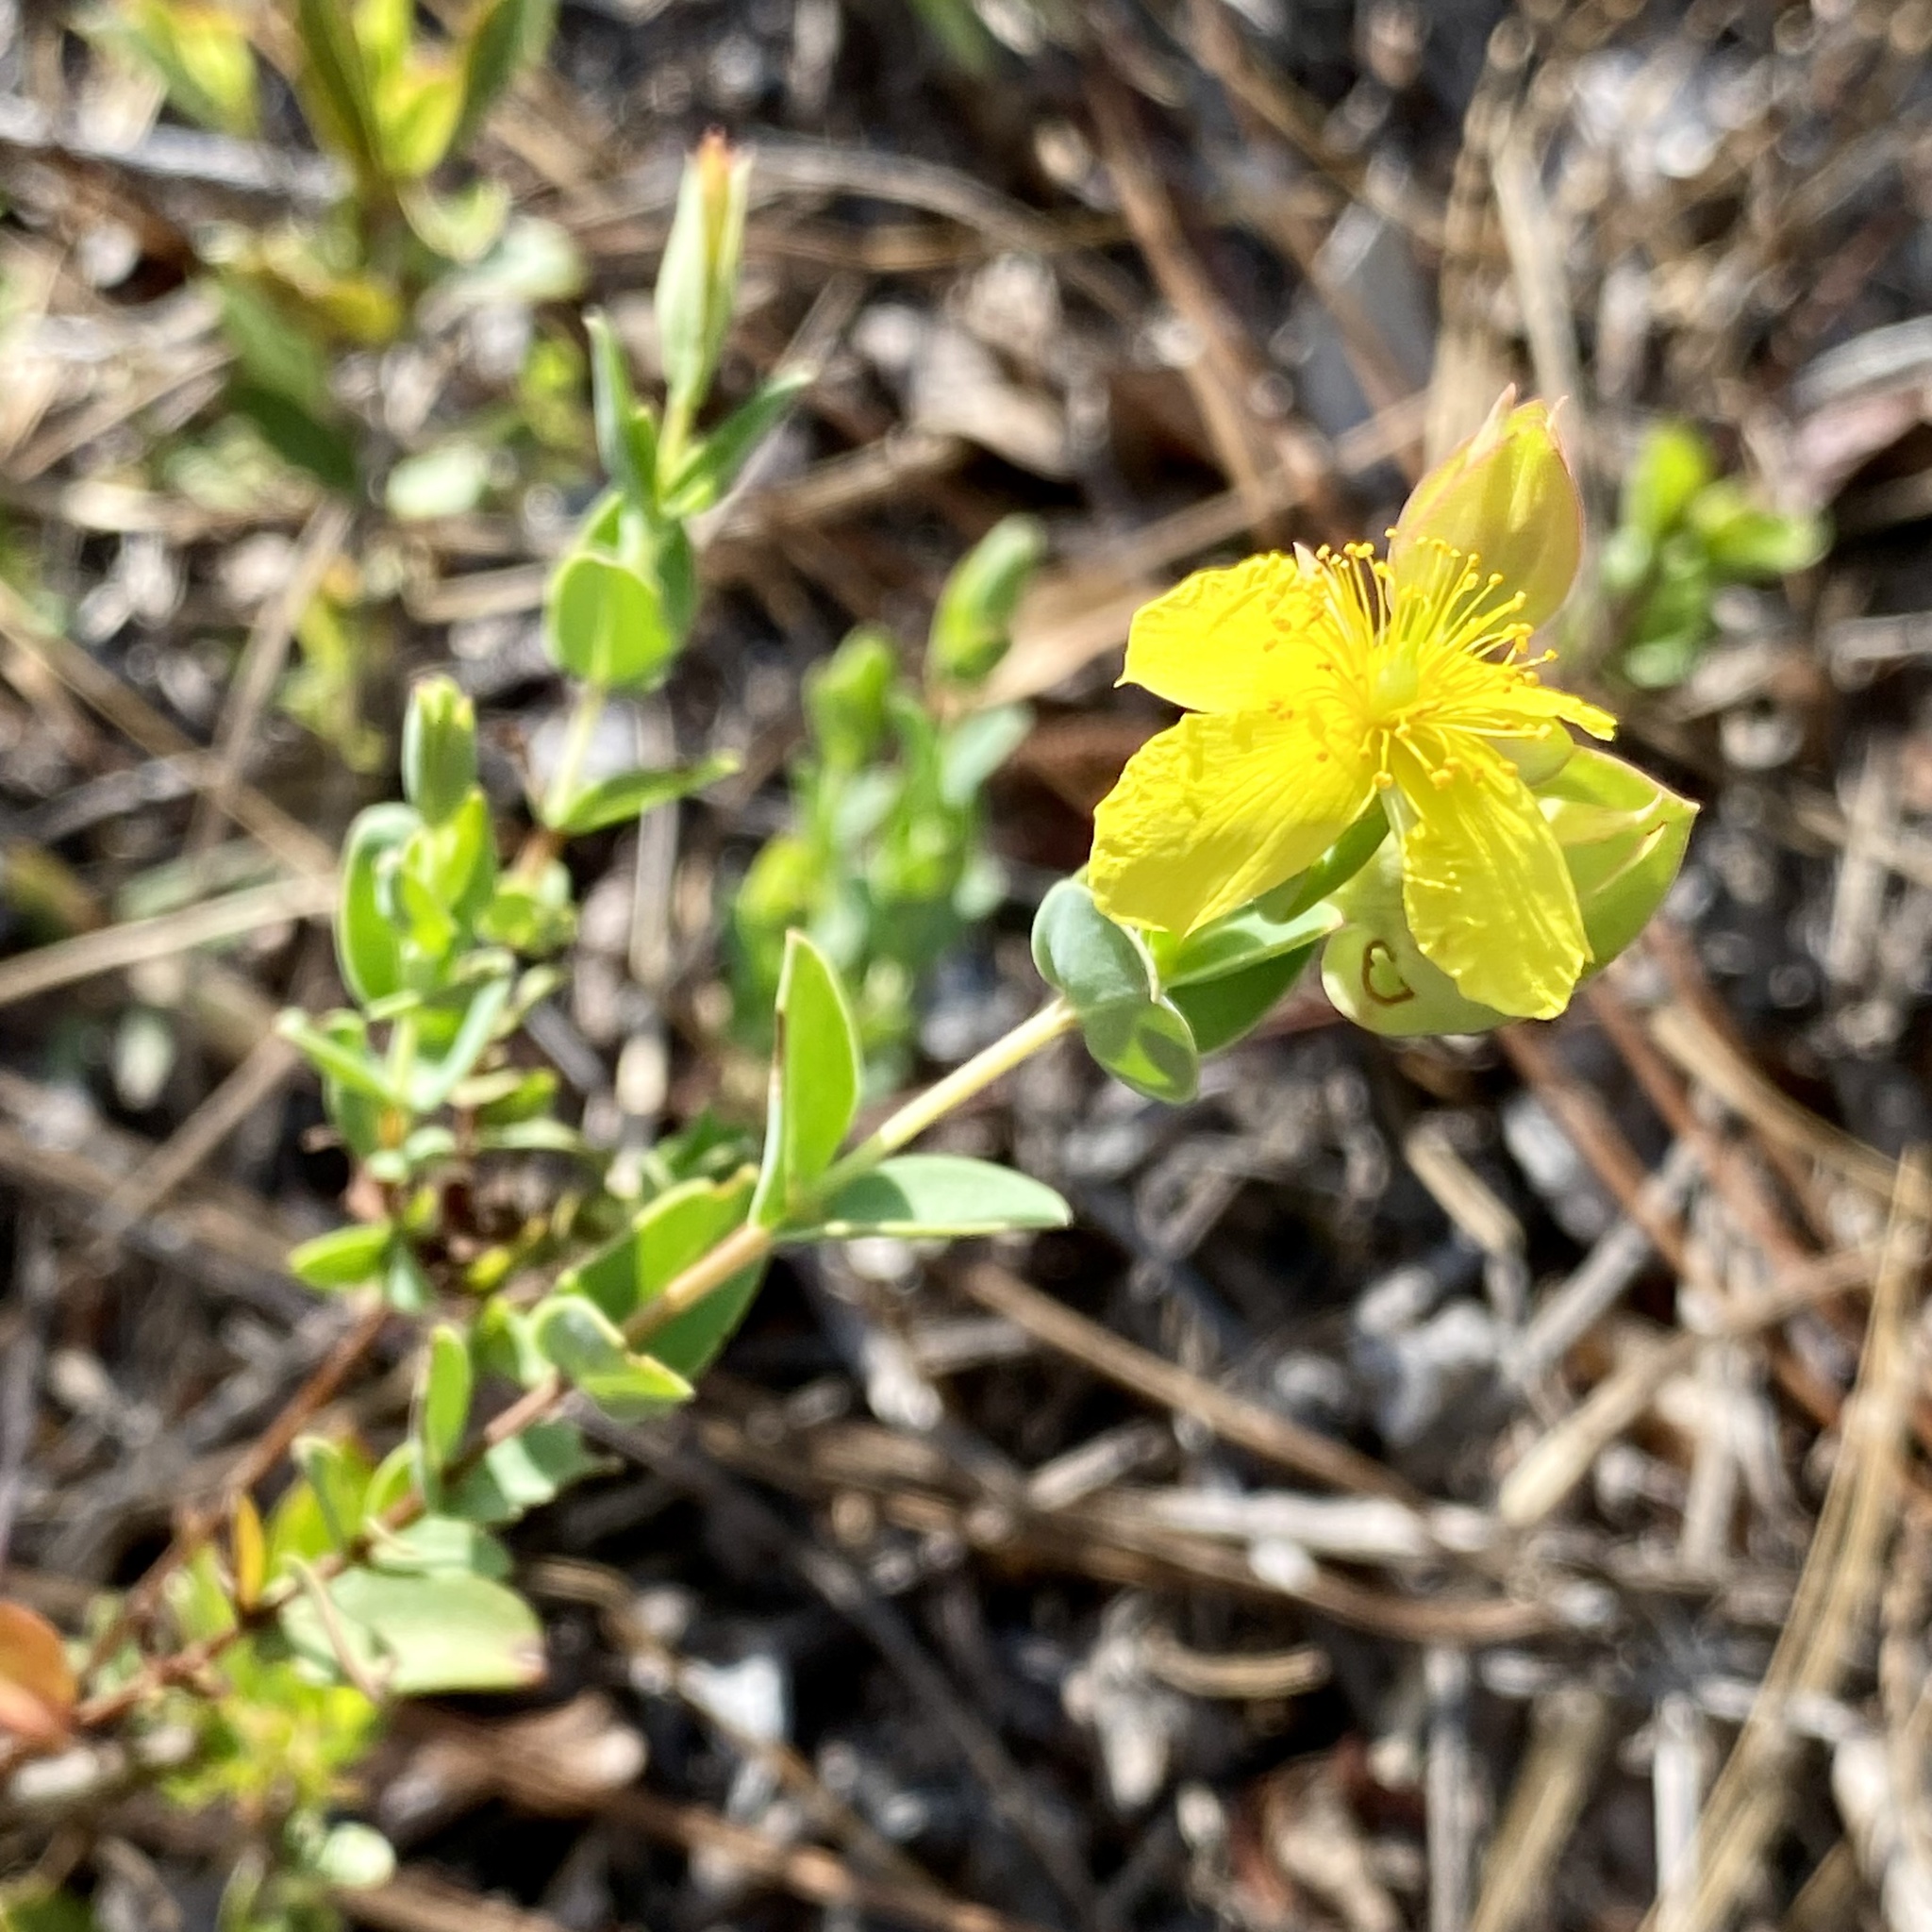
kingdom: Plantae
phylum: Tracheophyta
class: Magnoliopsida
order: Malpighiales
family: Hypericaceae
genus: Hypericum
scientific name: Hypericum tetrapetalum
